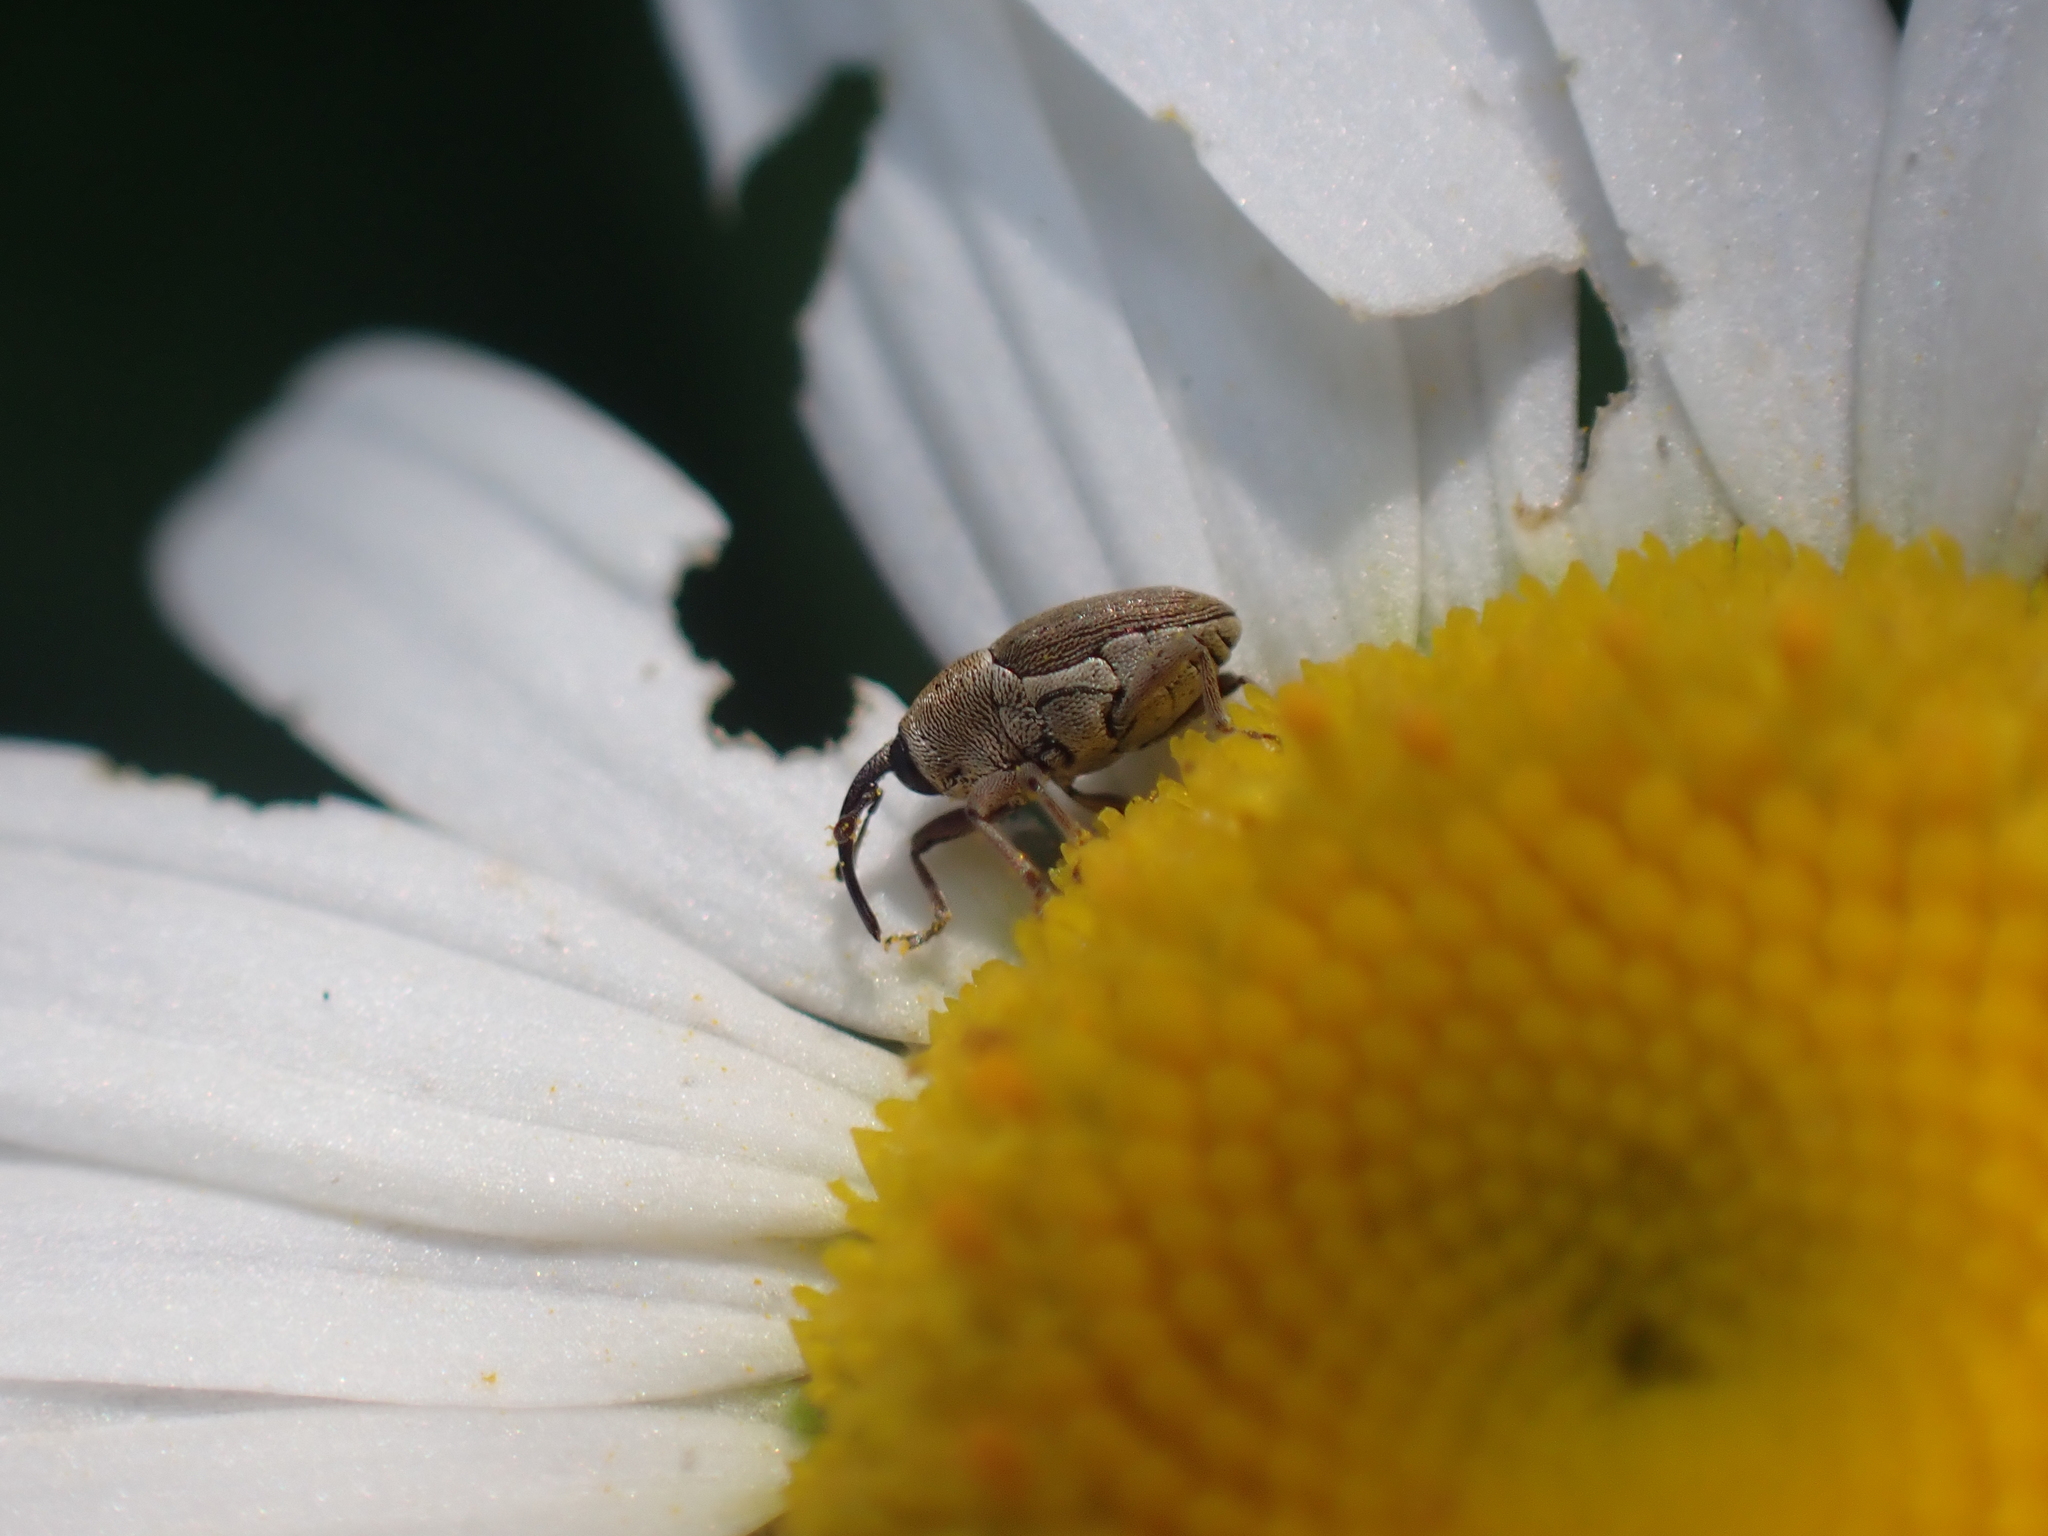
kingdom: Animalia
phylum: Arthropoda
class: Insecta
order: Coleoptera
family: Curculionidae
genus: Geraeus
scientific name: Geraeus picumnus
